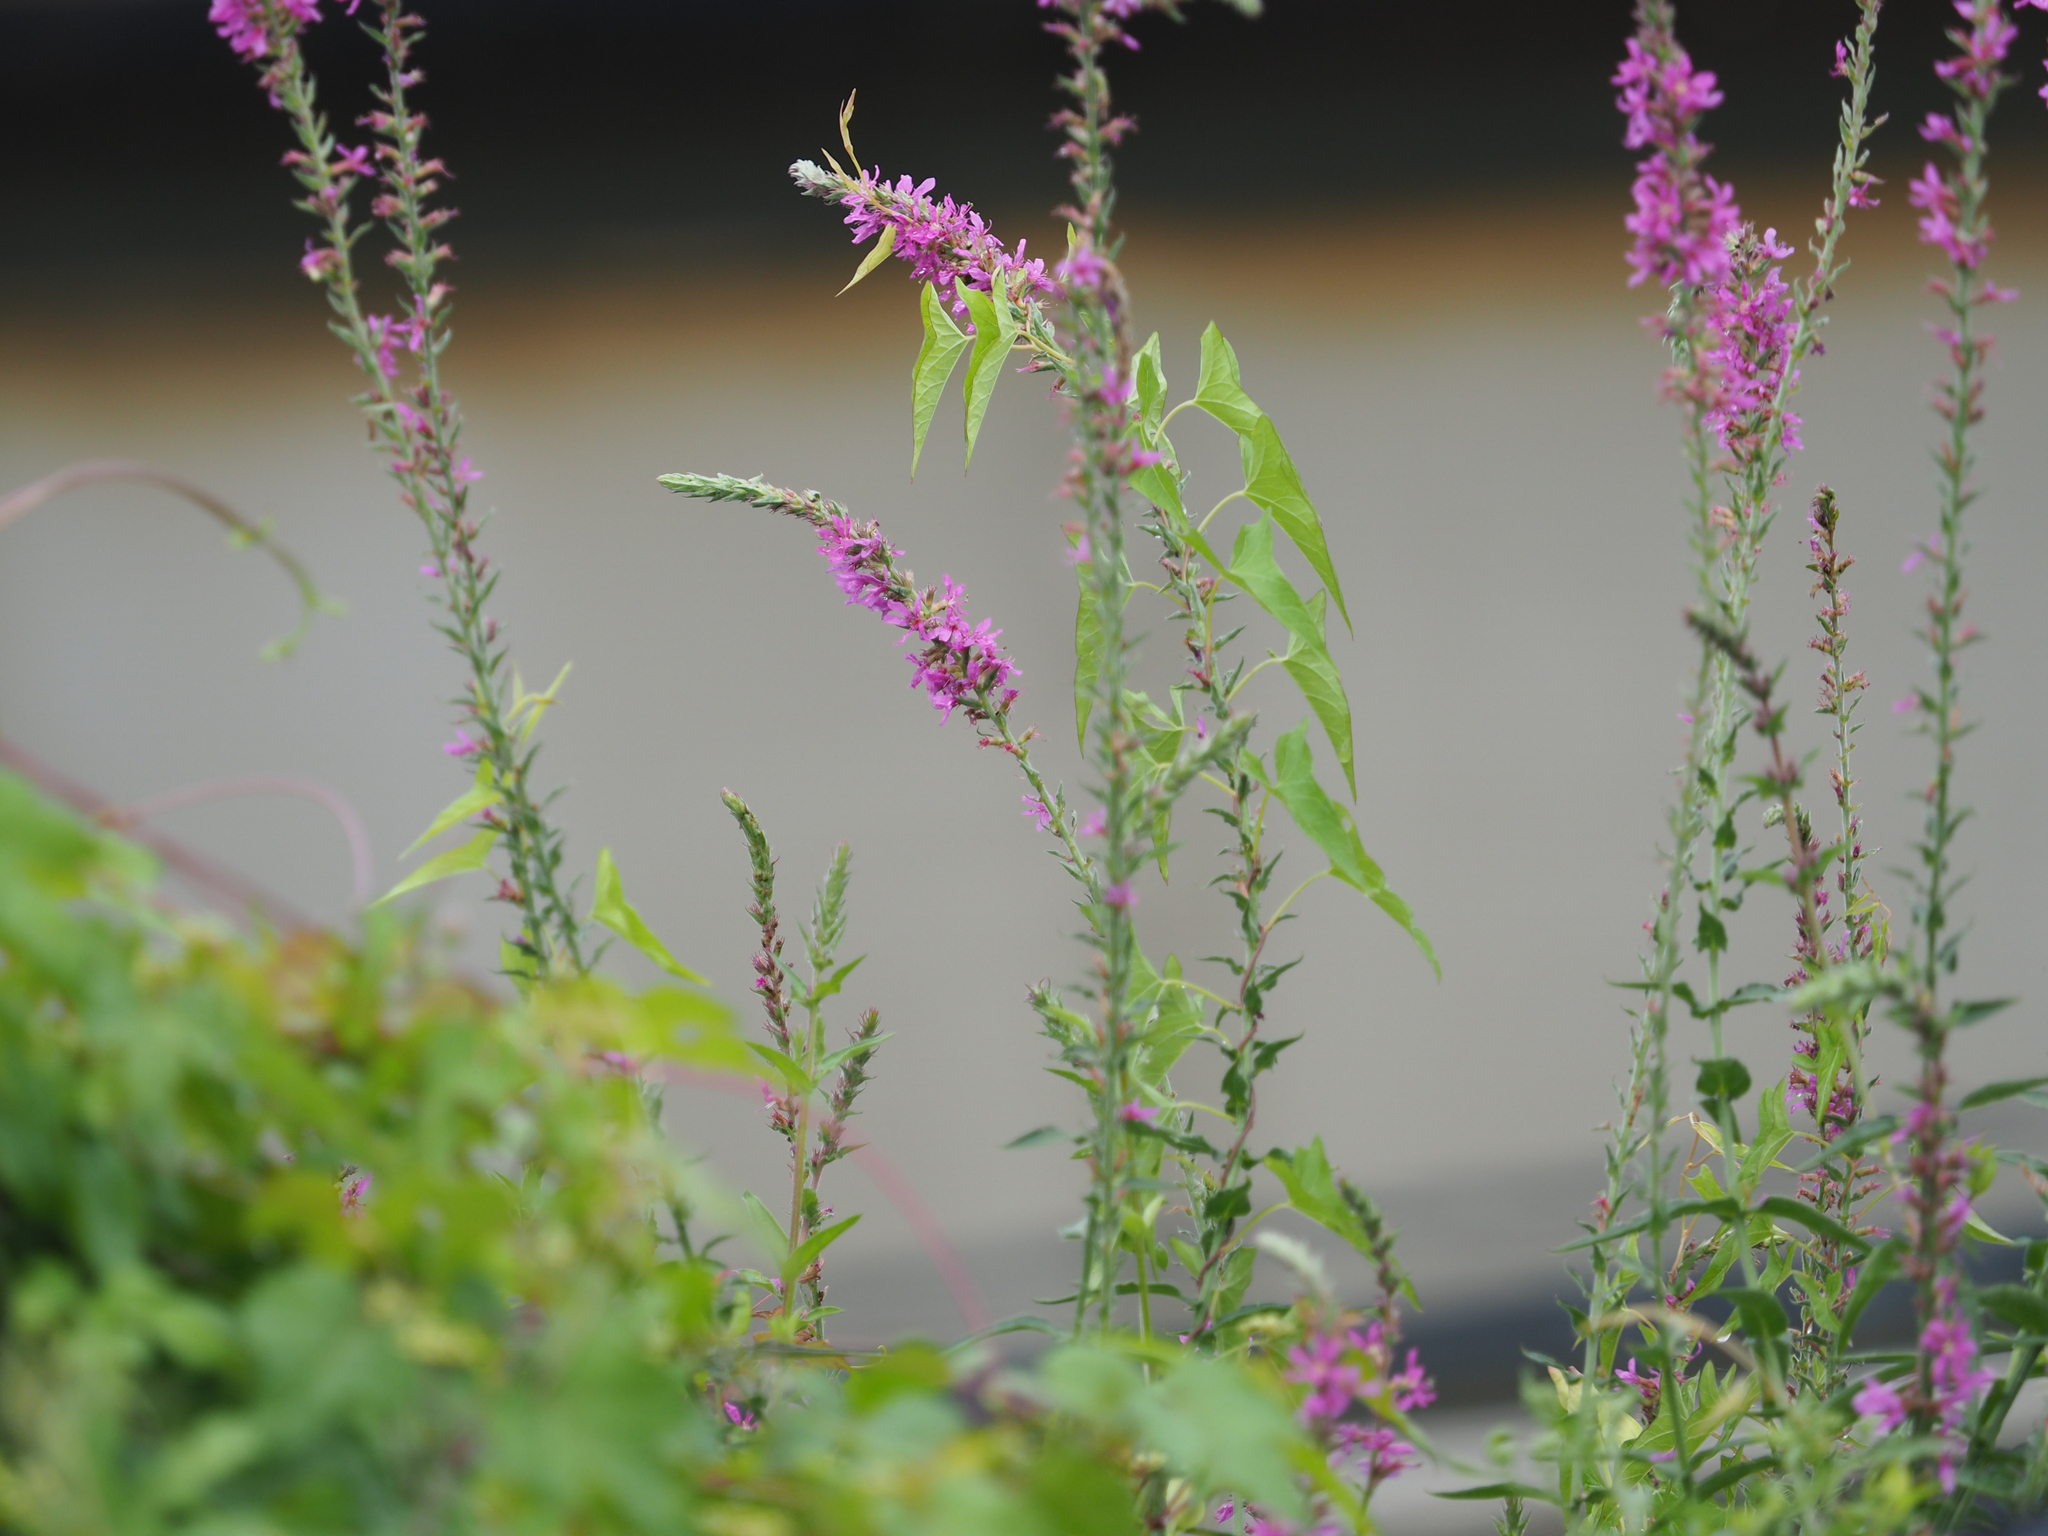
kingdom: Plantae
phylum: Tracheophyta
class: Magnoliopsida
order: Myrtales
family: Lythraceae
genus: Lythrum
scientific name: Lythrum salicaria
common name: Purple loosestrife
